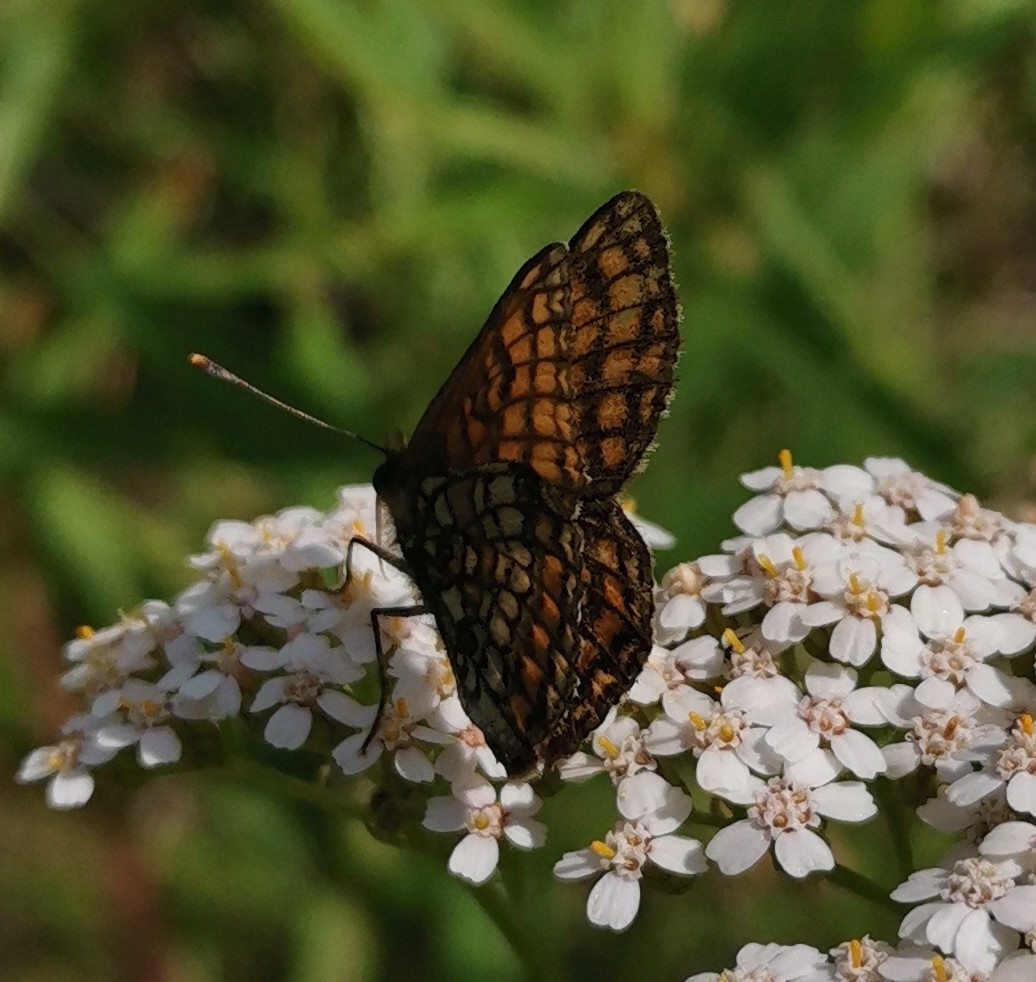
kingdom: Animalia
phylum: Arthropoda
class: Insecta
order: Lepidoptera
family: Nymphalidae
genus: Melitaea
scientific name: Melitaea athalia
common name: Heath fritillary
